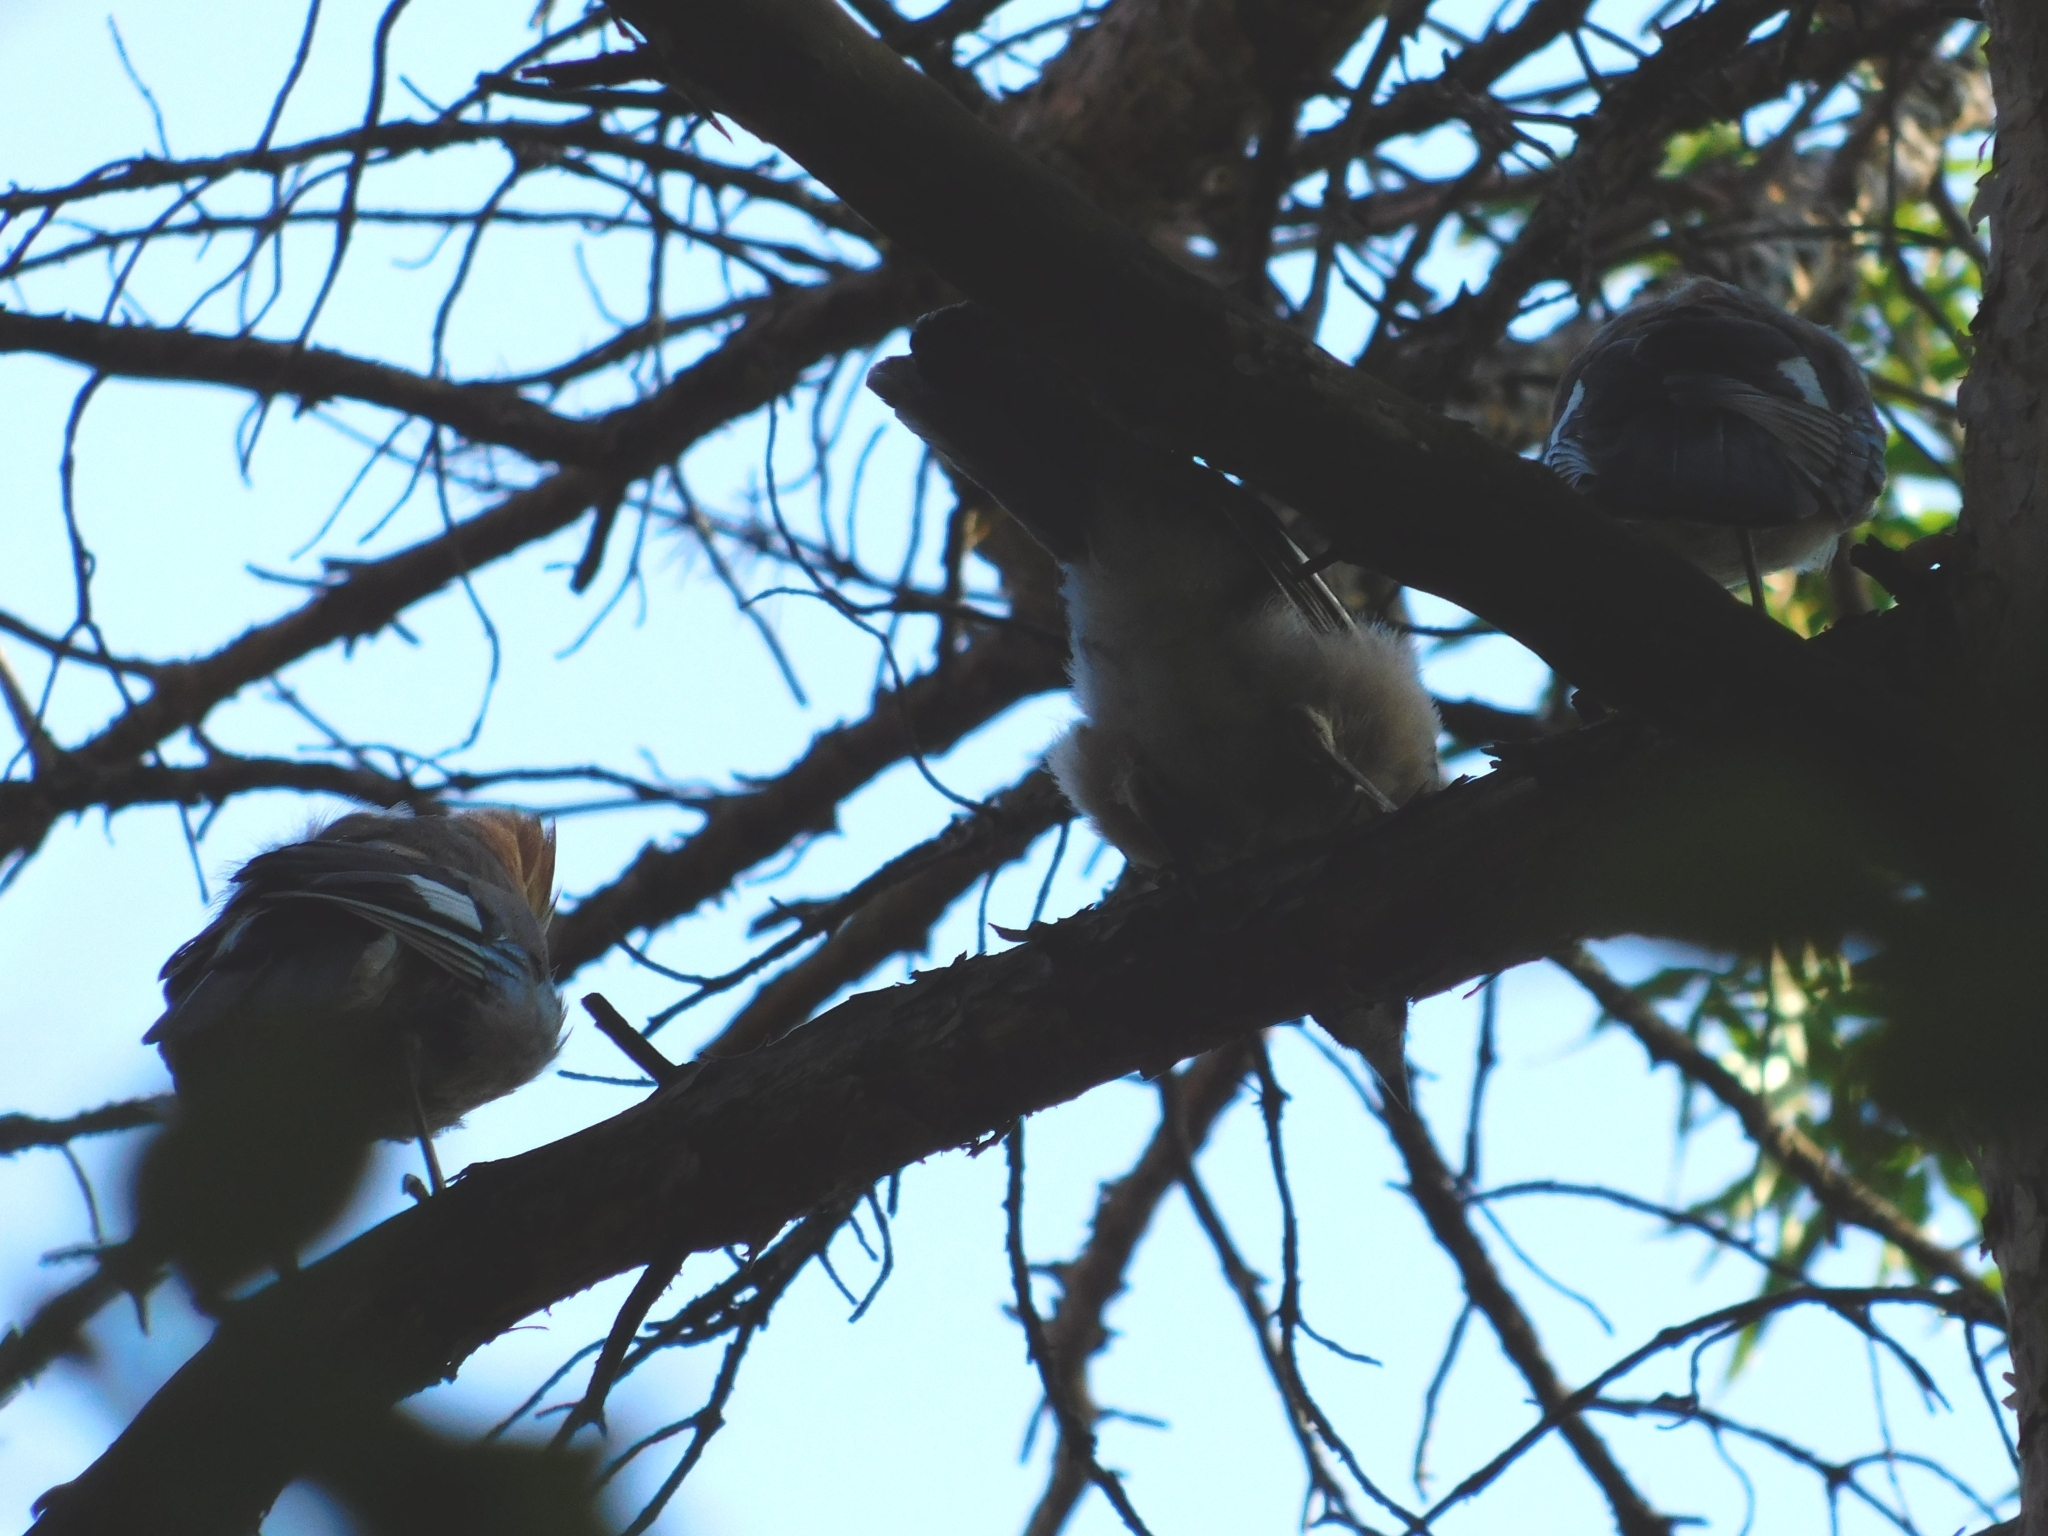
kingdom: Animalia
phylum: Chordata
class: Aves
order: Passeriformes
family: Corvidae
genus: Garrulus
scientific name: Garrulus glandarius
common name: Eurasian jay
